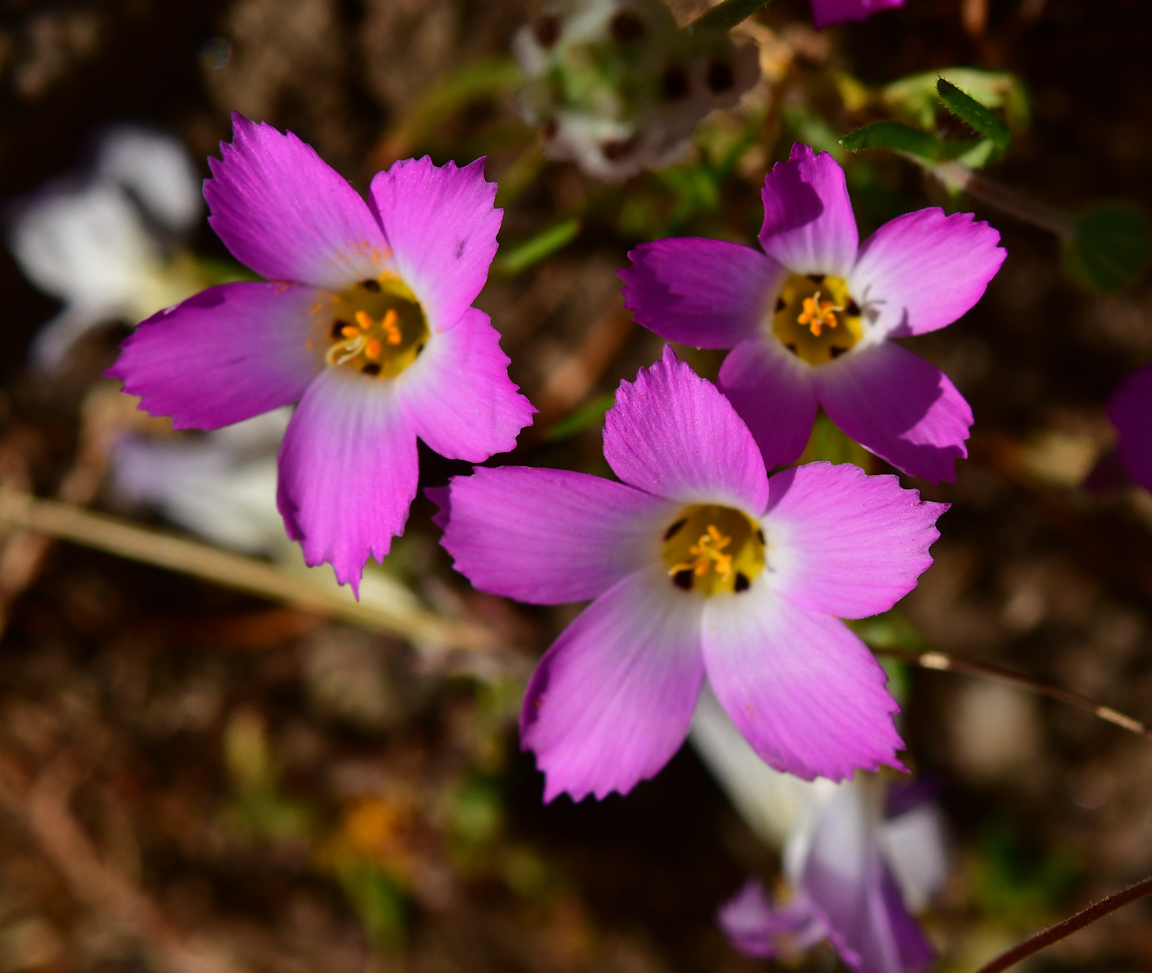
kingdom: Plantae
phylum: Tracheophyta
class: Magnoliopsida
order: Ericales
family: Polemoniaceae
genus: Linanthus
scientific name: Linanthus dianthiflorus
